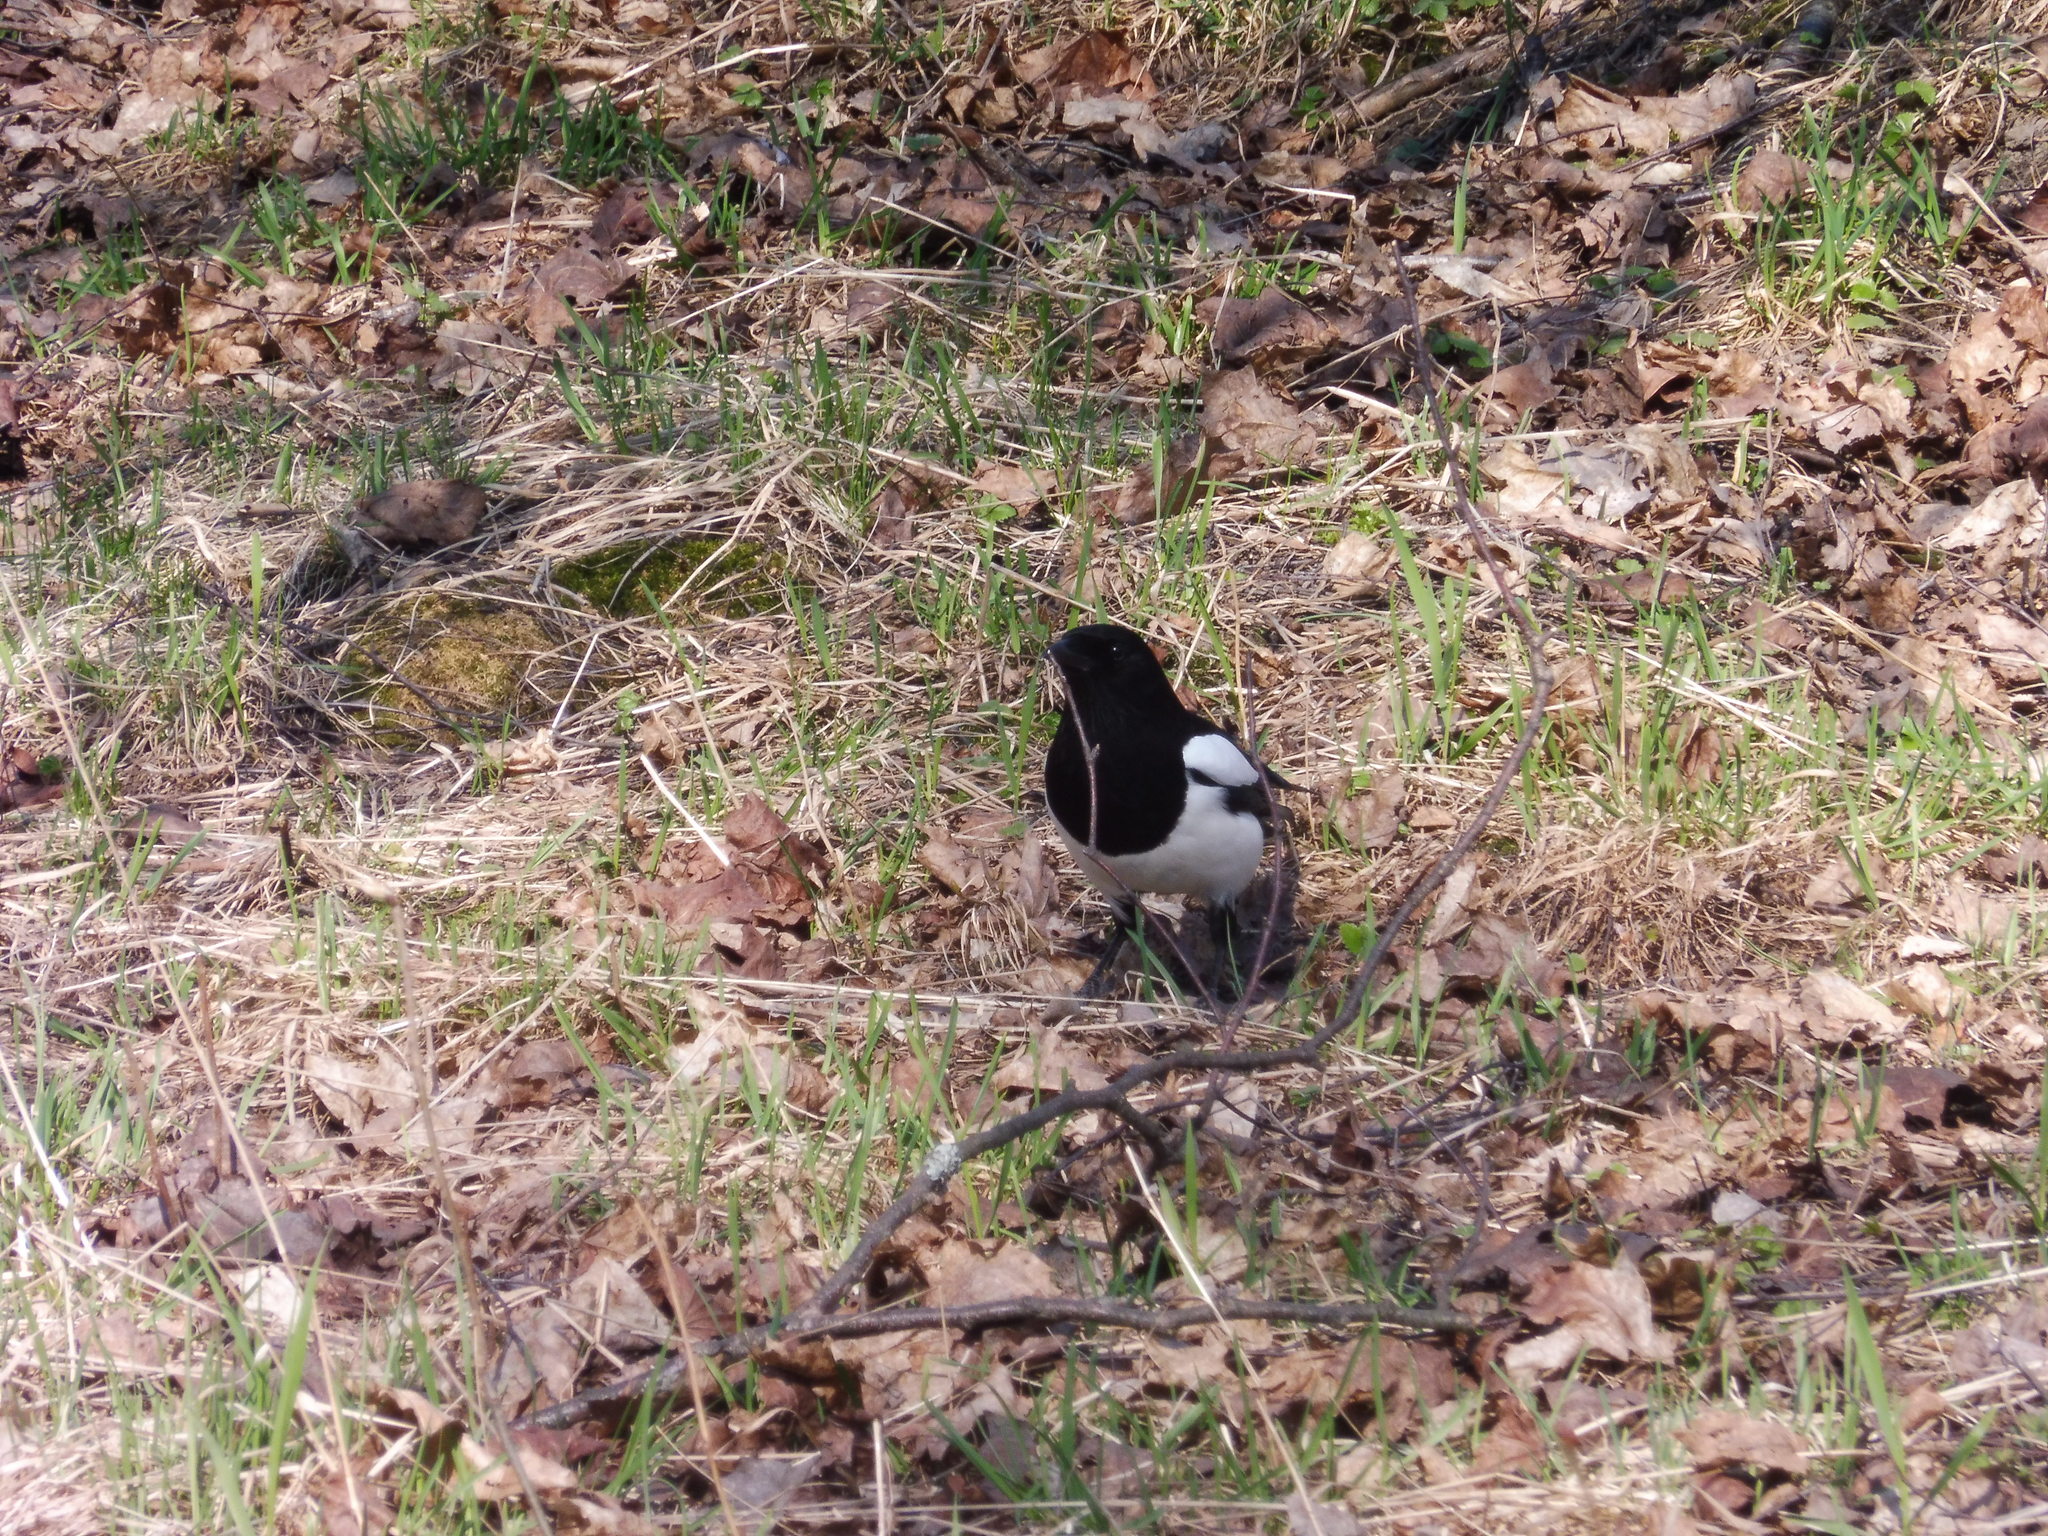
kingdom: Animalia
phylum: Chordata
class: Aves
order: Passeriformes
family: Corvidae
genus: Pica
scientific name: Pica pica
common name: Eurasian magpie
